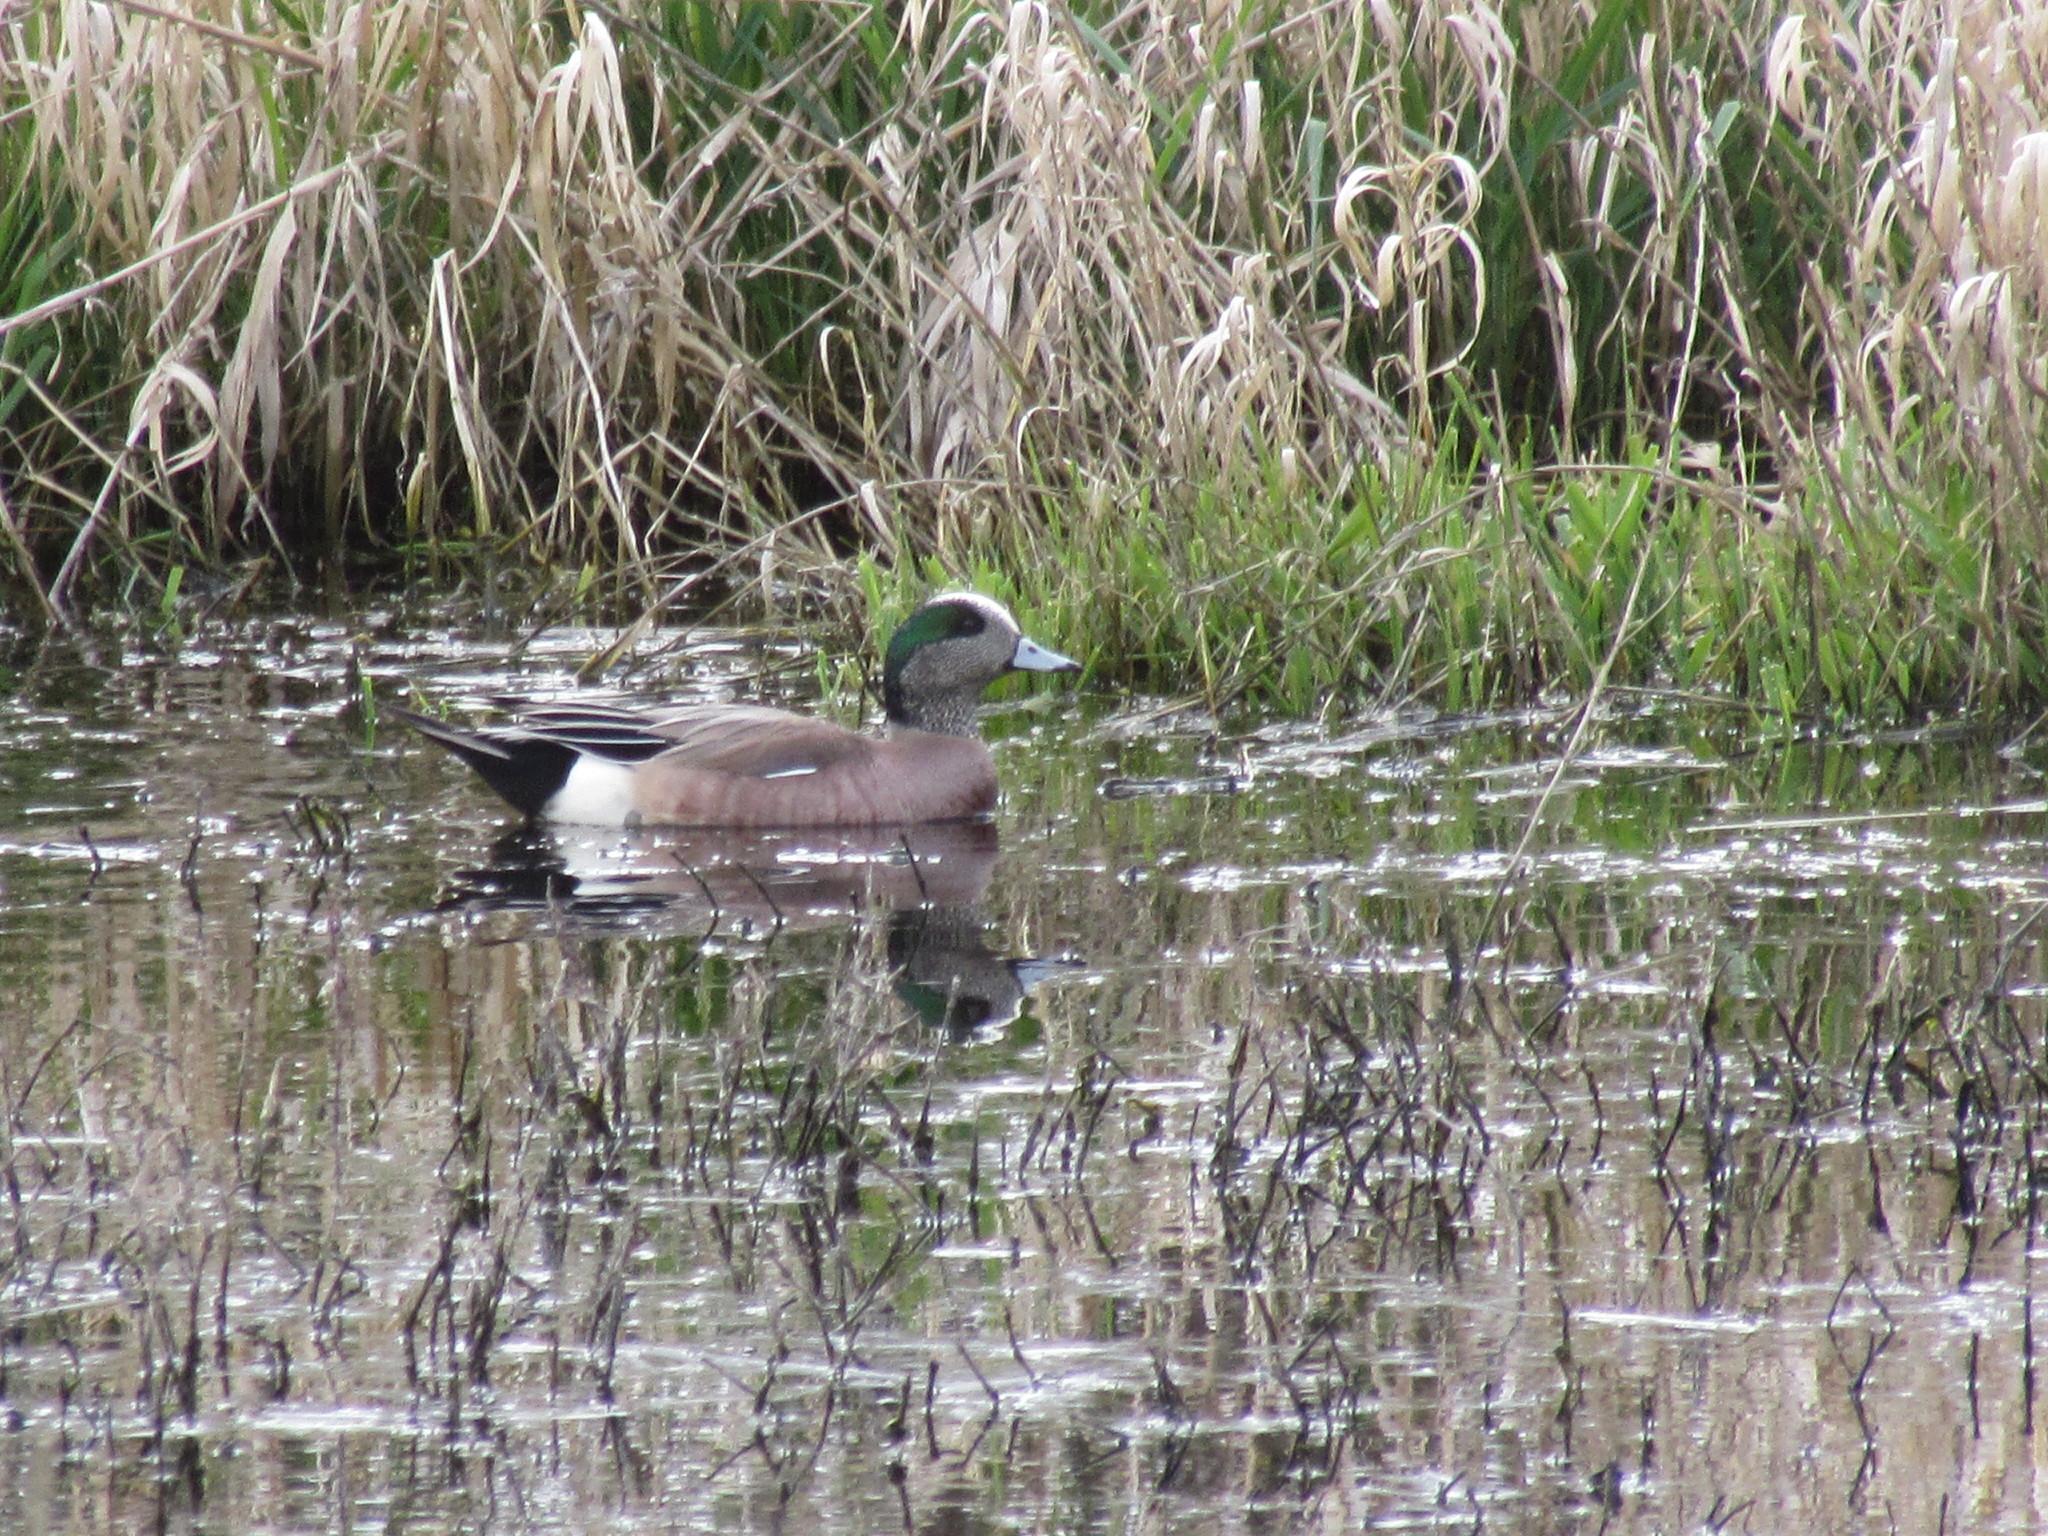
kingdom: Animalia
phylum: Chordata
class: Aves
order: Anseriformes
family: Anatidae
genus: Mareca
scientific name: Mareca americana
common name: American wigeon
